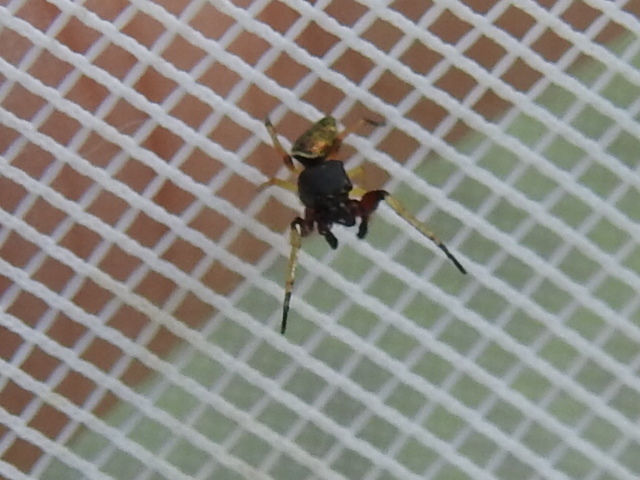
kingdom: Animalia
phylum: Arthropoda
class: Arachnida
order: Araneae
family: Salticidae
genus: Zygoballus
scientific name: Zygoballus rufipes
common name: Jumping spiders
